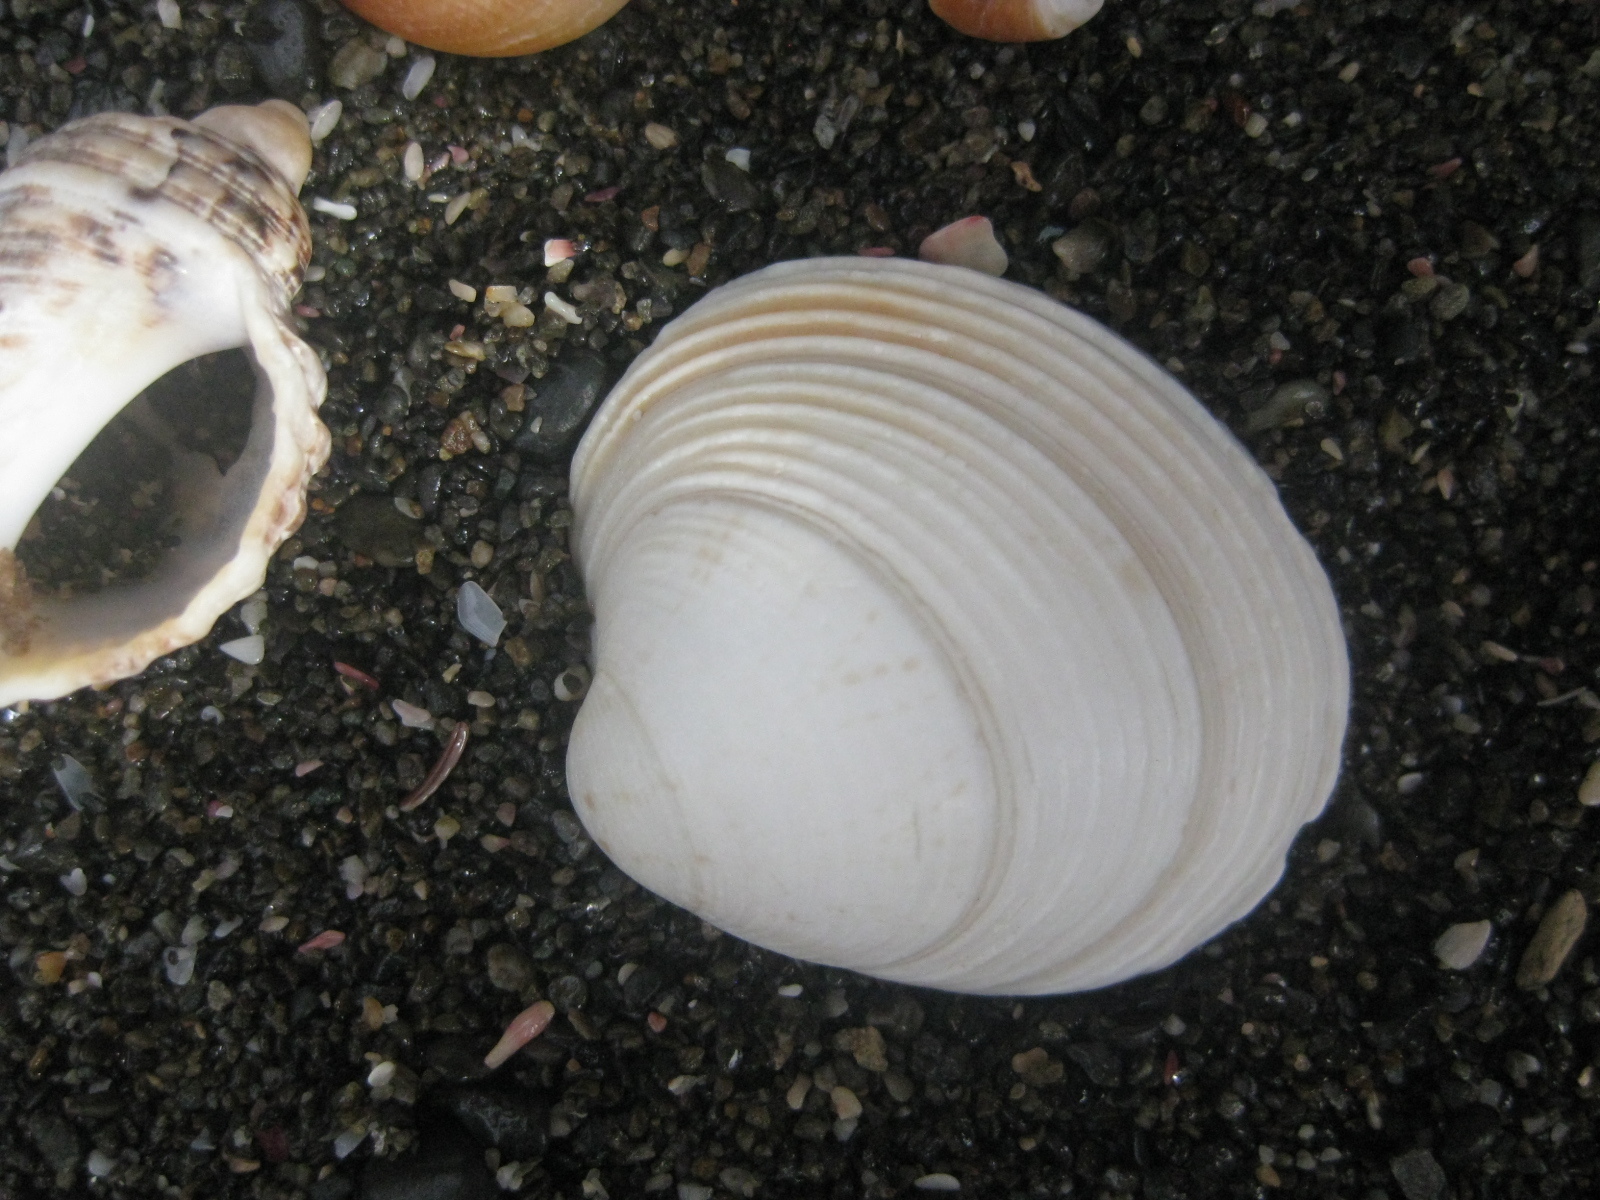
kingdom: Animalia
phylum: Mollusca
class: Bivalvia
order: Venerida
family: Veneridae
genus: Dosina
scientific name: Dosina mactracea
